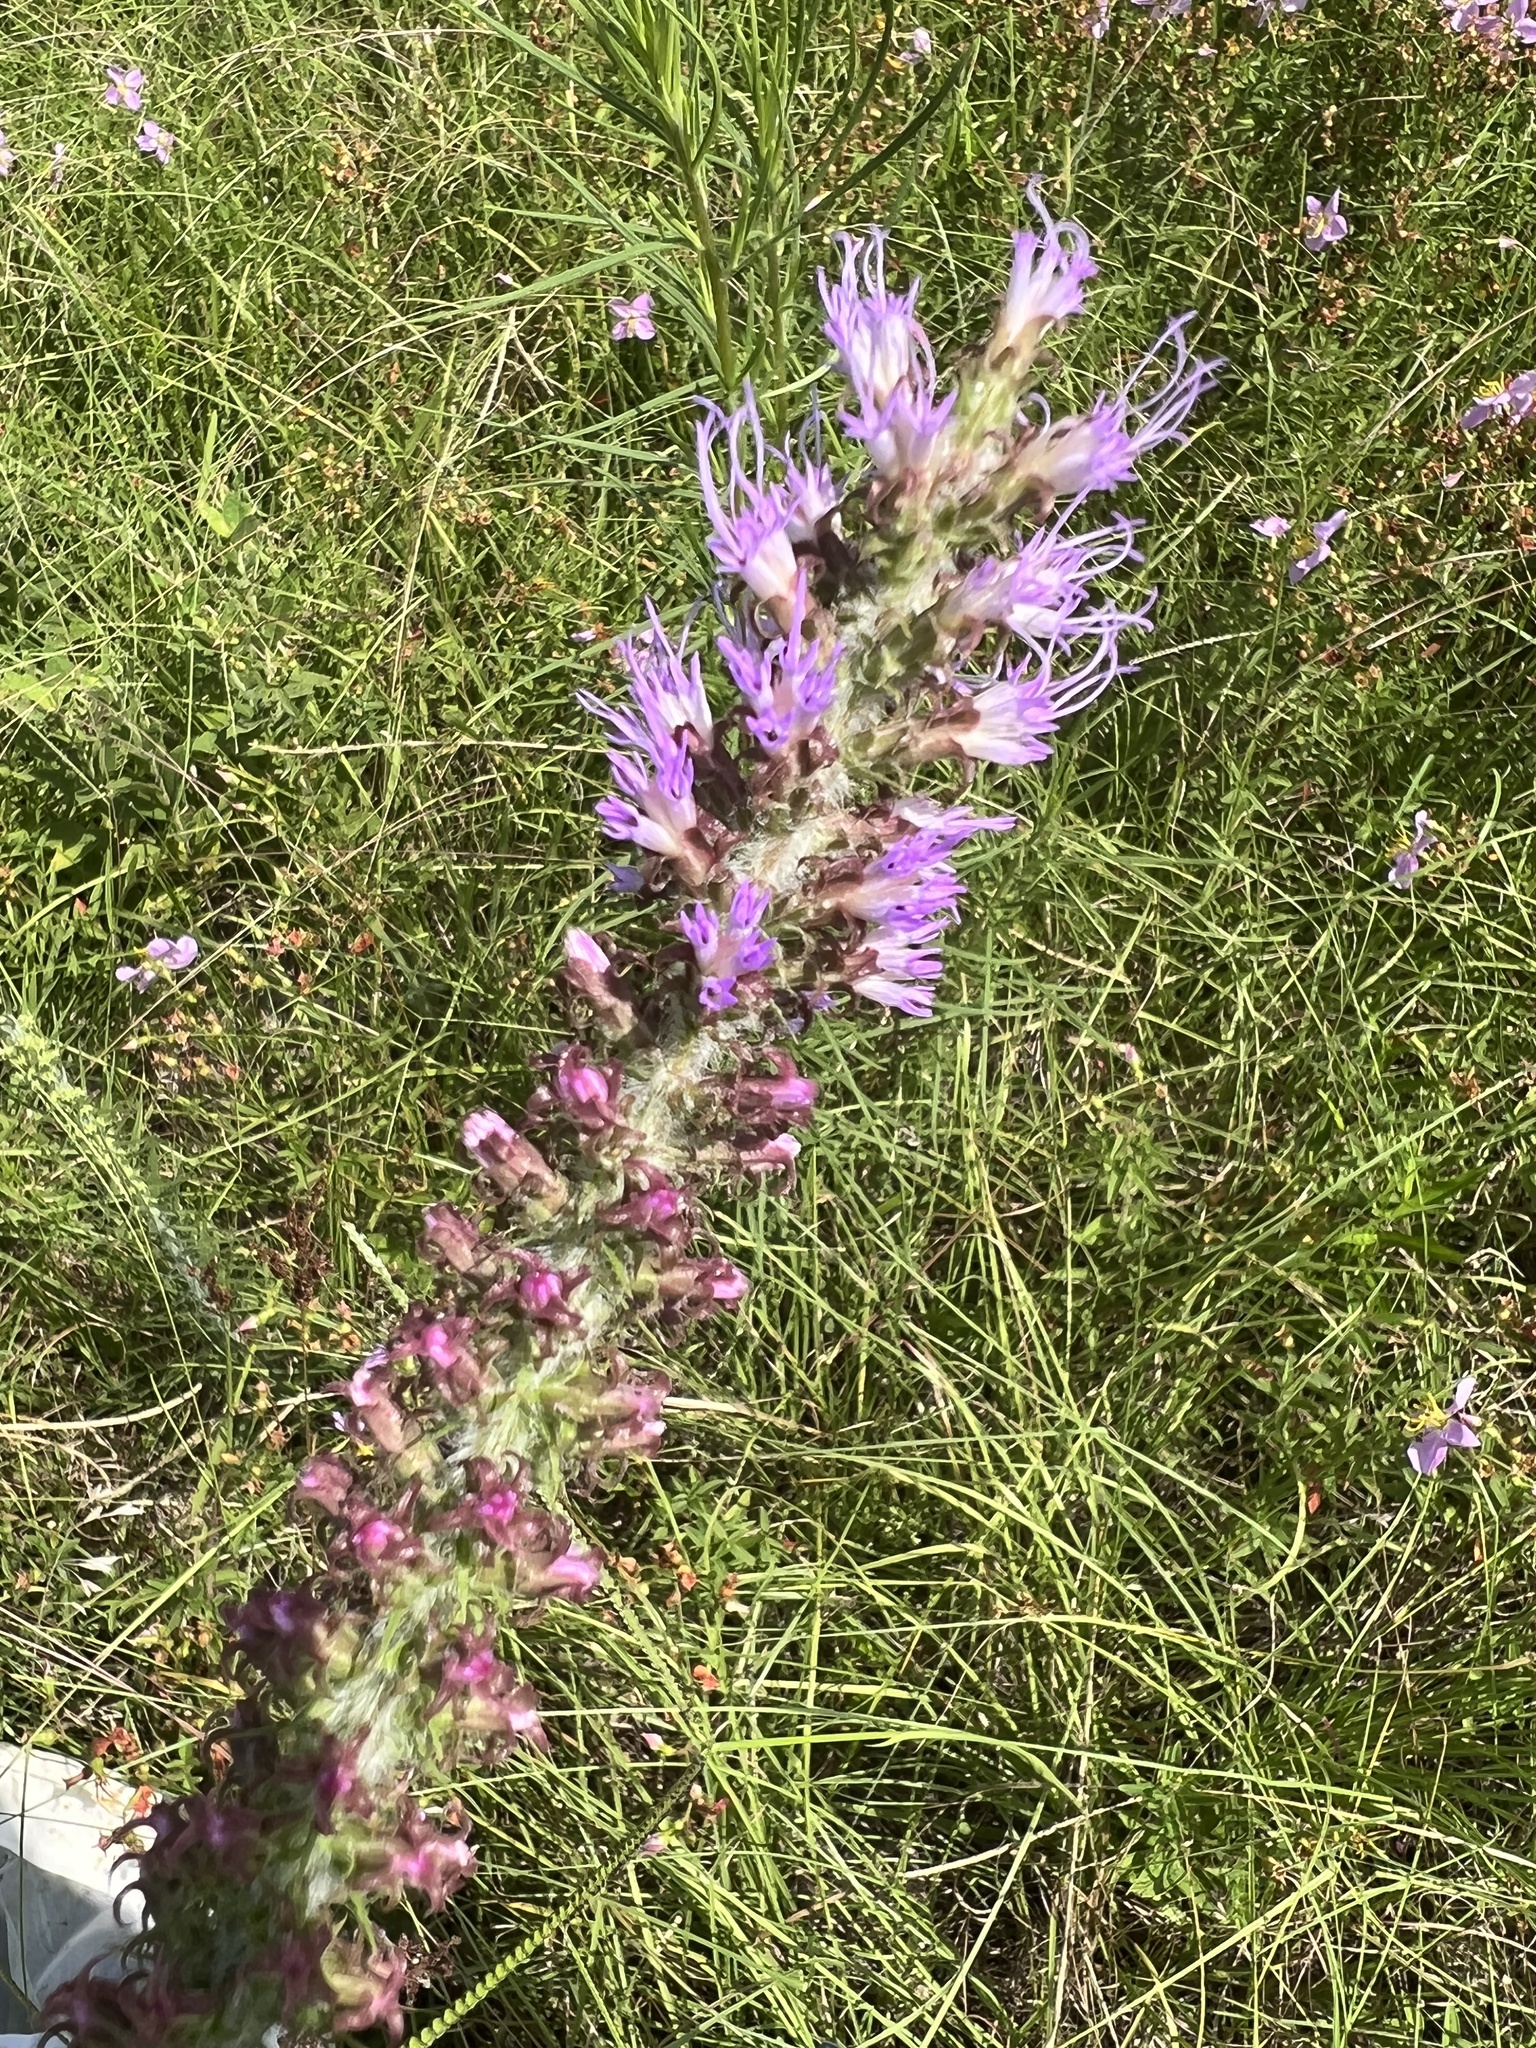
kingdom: Plantae
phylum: Tracheophyta
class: Magnoliopsida
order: Asterales
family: Asteraceae
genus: Liatris
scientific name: Liatris pycnostachya
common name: Cattail gayfeather
